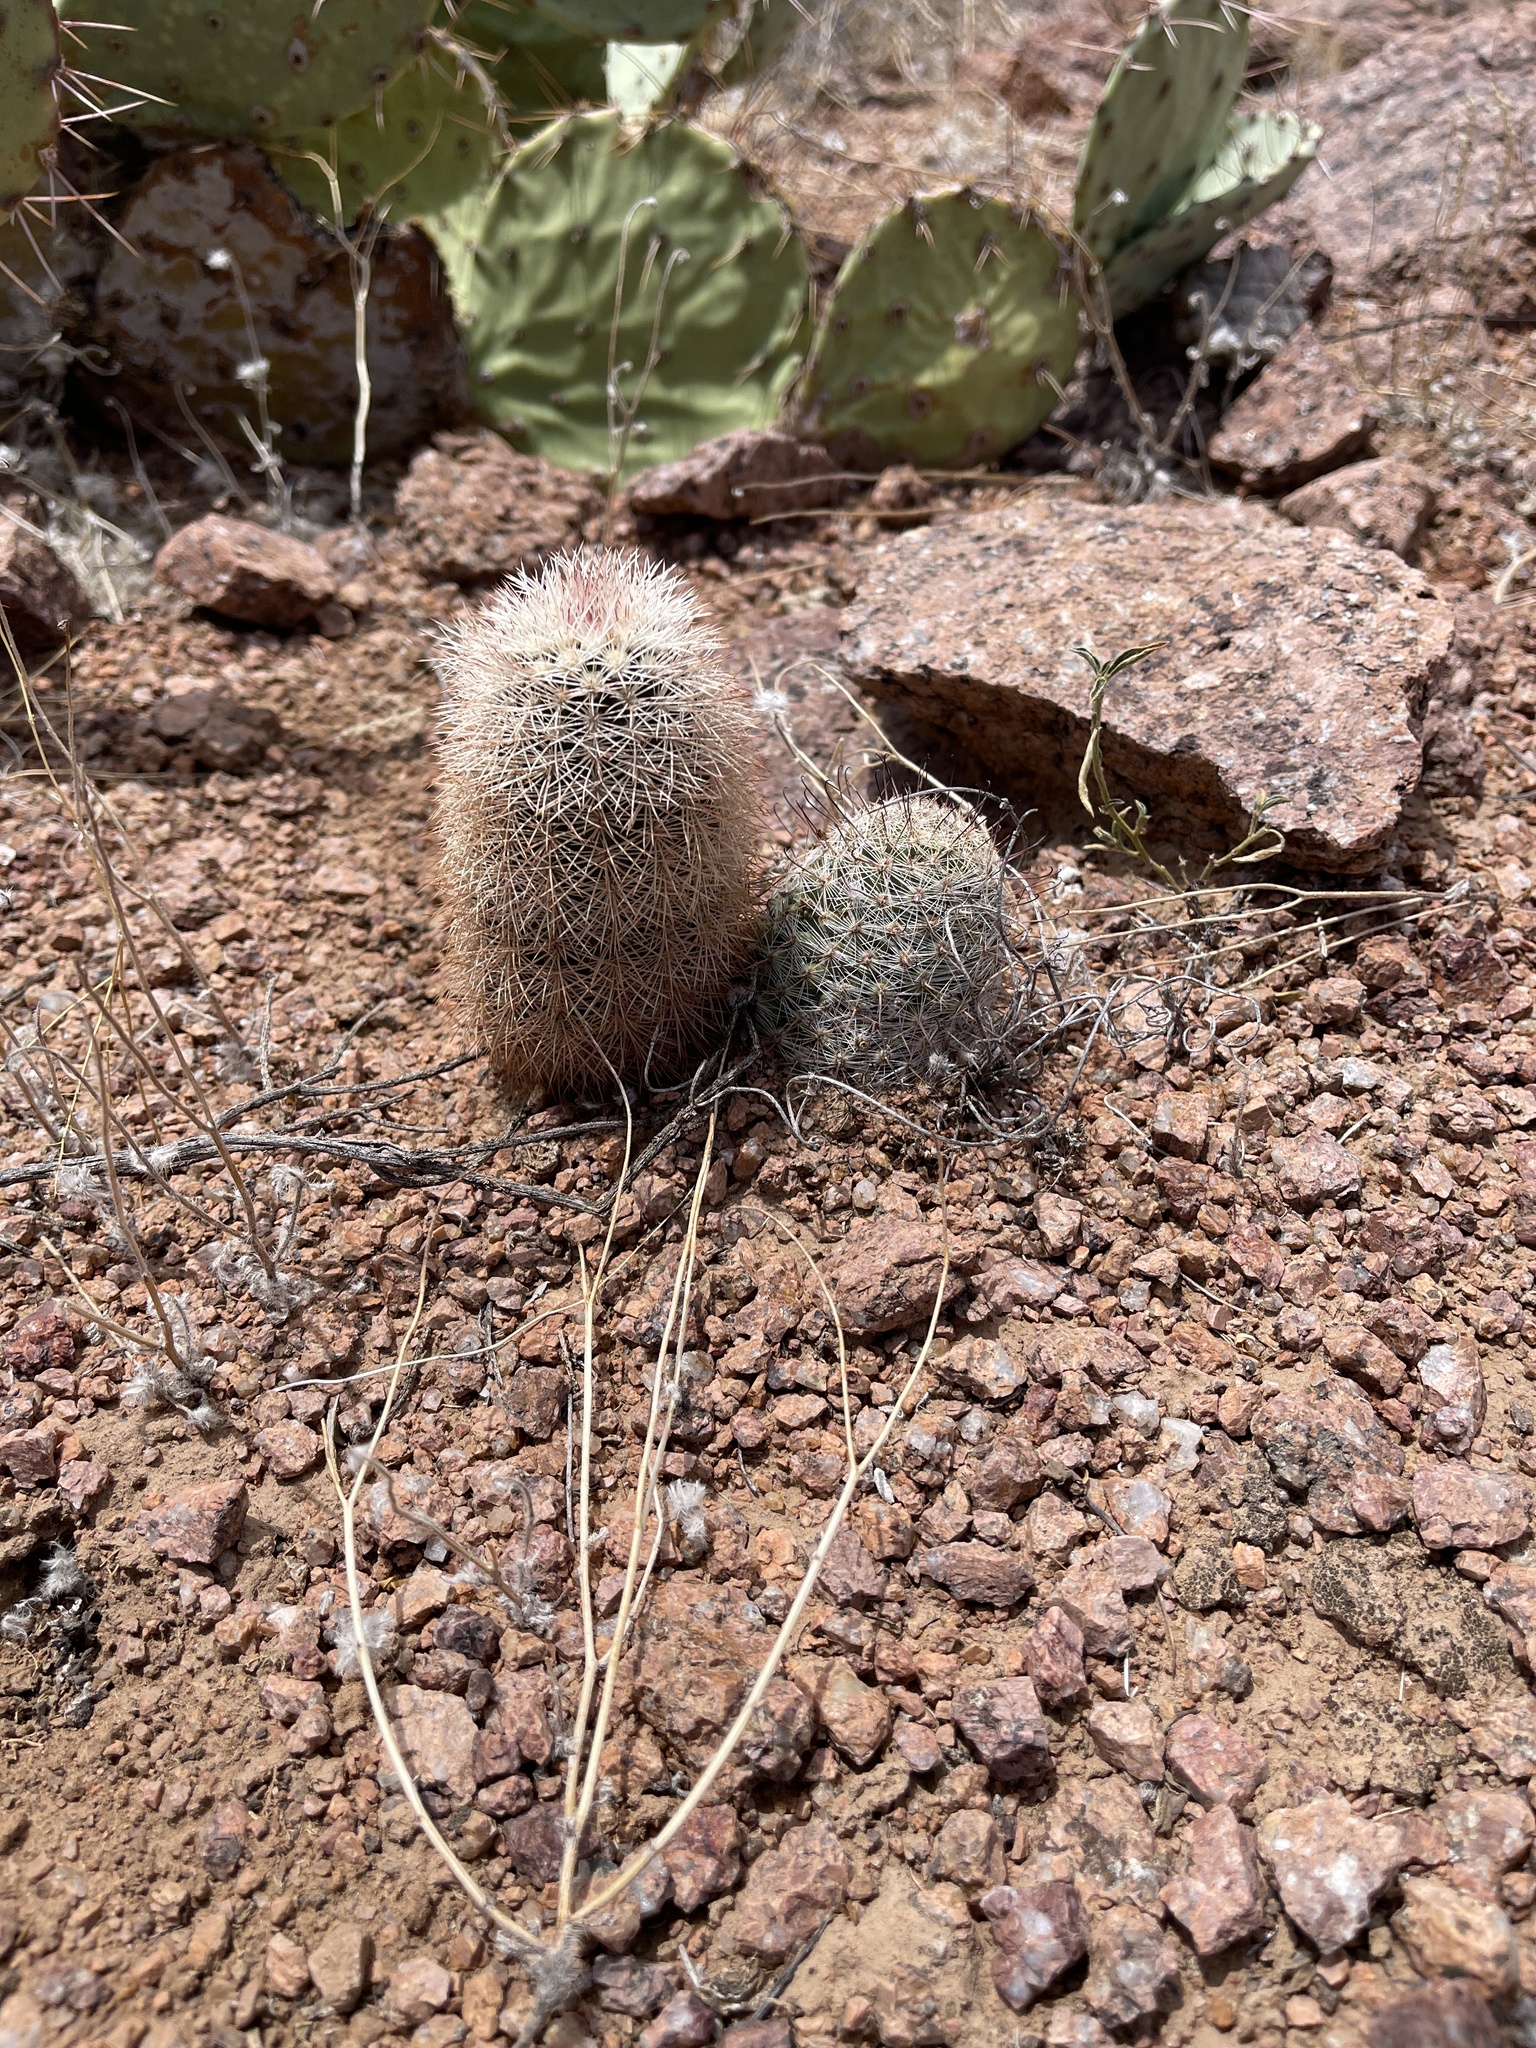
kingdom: Plantae
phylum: Tracheophyta
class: Magnoliopsida
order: Caryophyllales
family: Cactaceae
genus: Cochemiea
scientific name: Cochemiea grahamii
